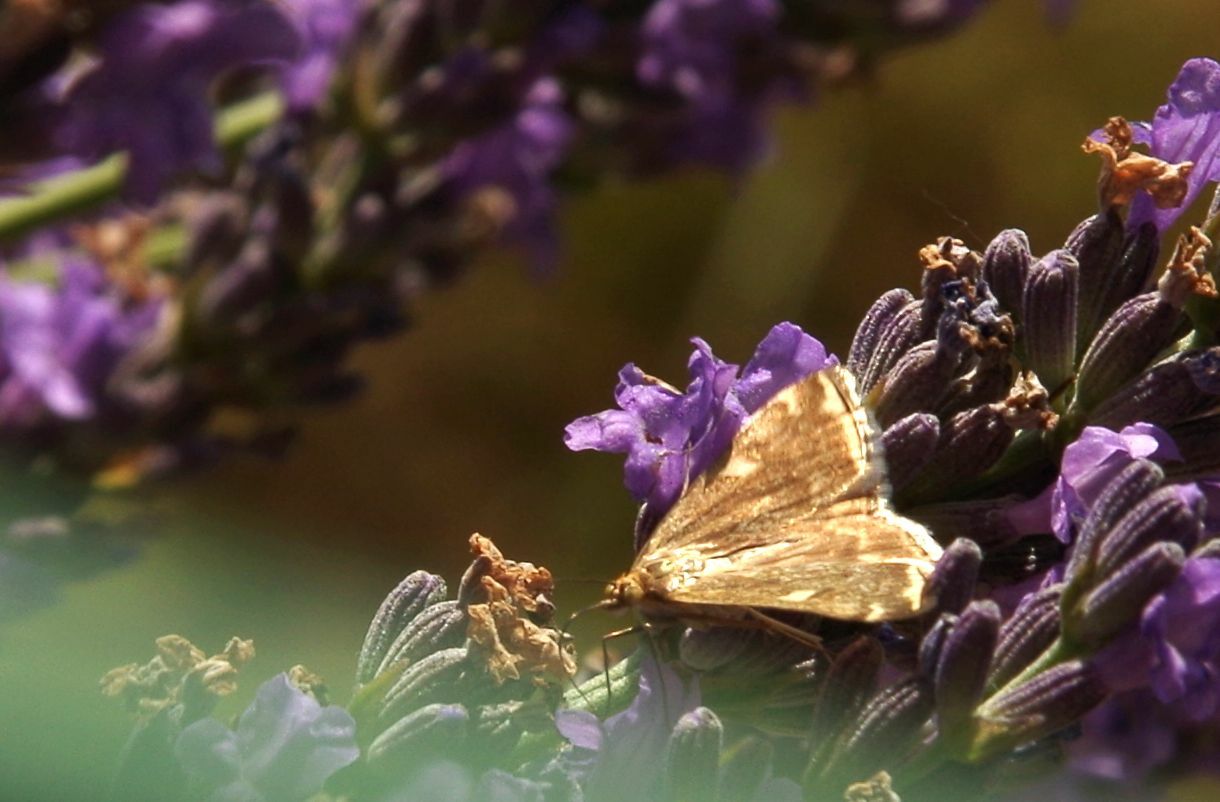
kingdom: Animalia
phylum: Arthropoda
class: Insecta
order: Lepidoptera
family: Crambidae
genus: Loxostege
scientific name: Loxostege sticticalis
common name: Crambid moth
